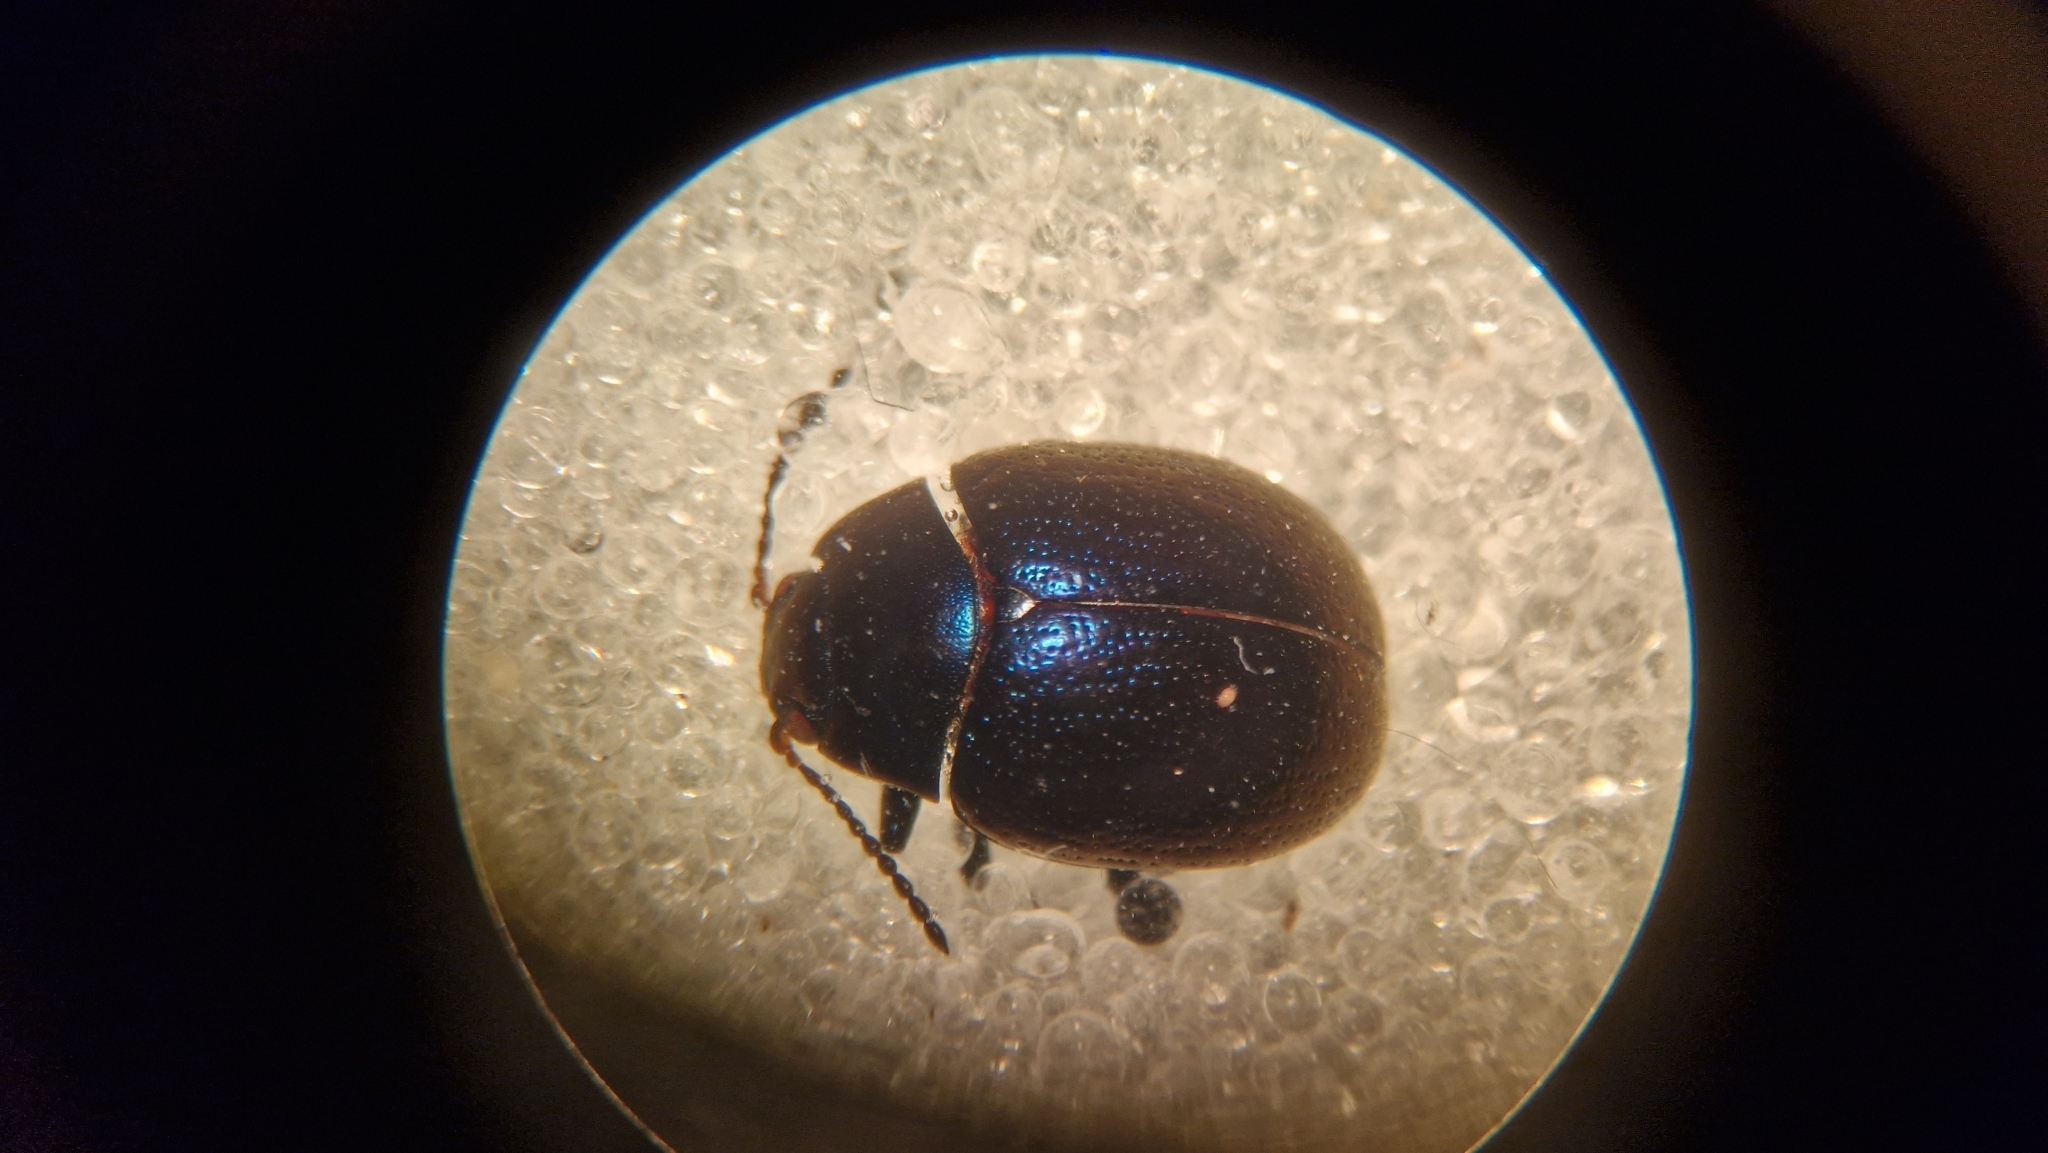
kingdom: Animalia
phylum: Arthropoda
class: Insecta
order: Coleoptera
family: Chrysomelidae
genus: Chrysolina
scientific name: Chrysolina haemoptera
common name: Plantain leaf beetle
